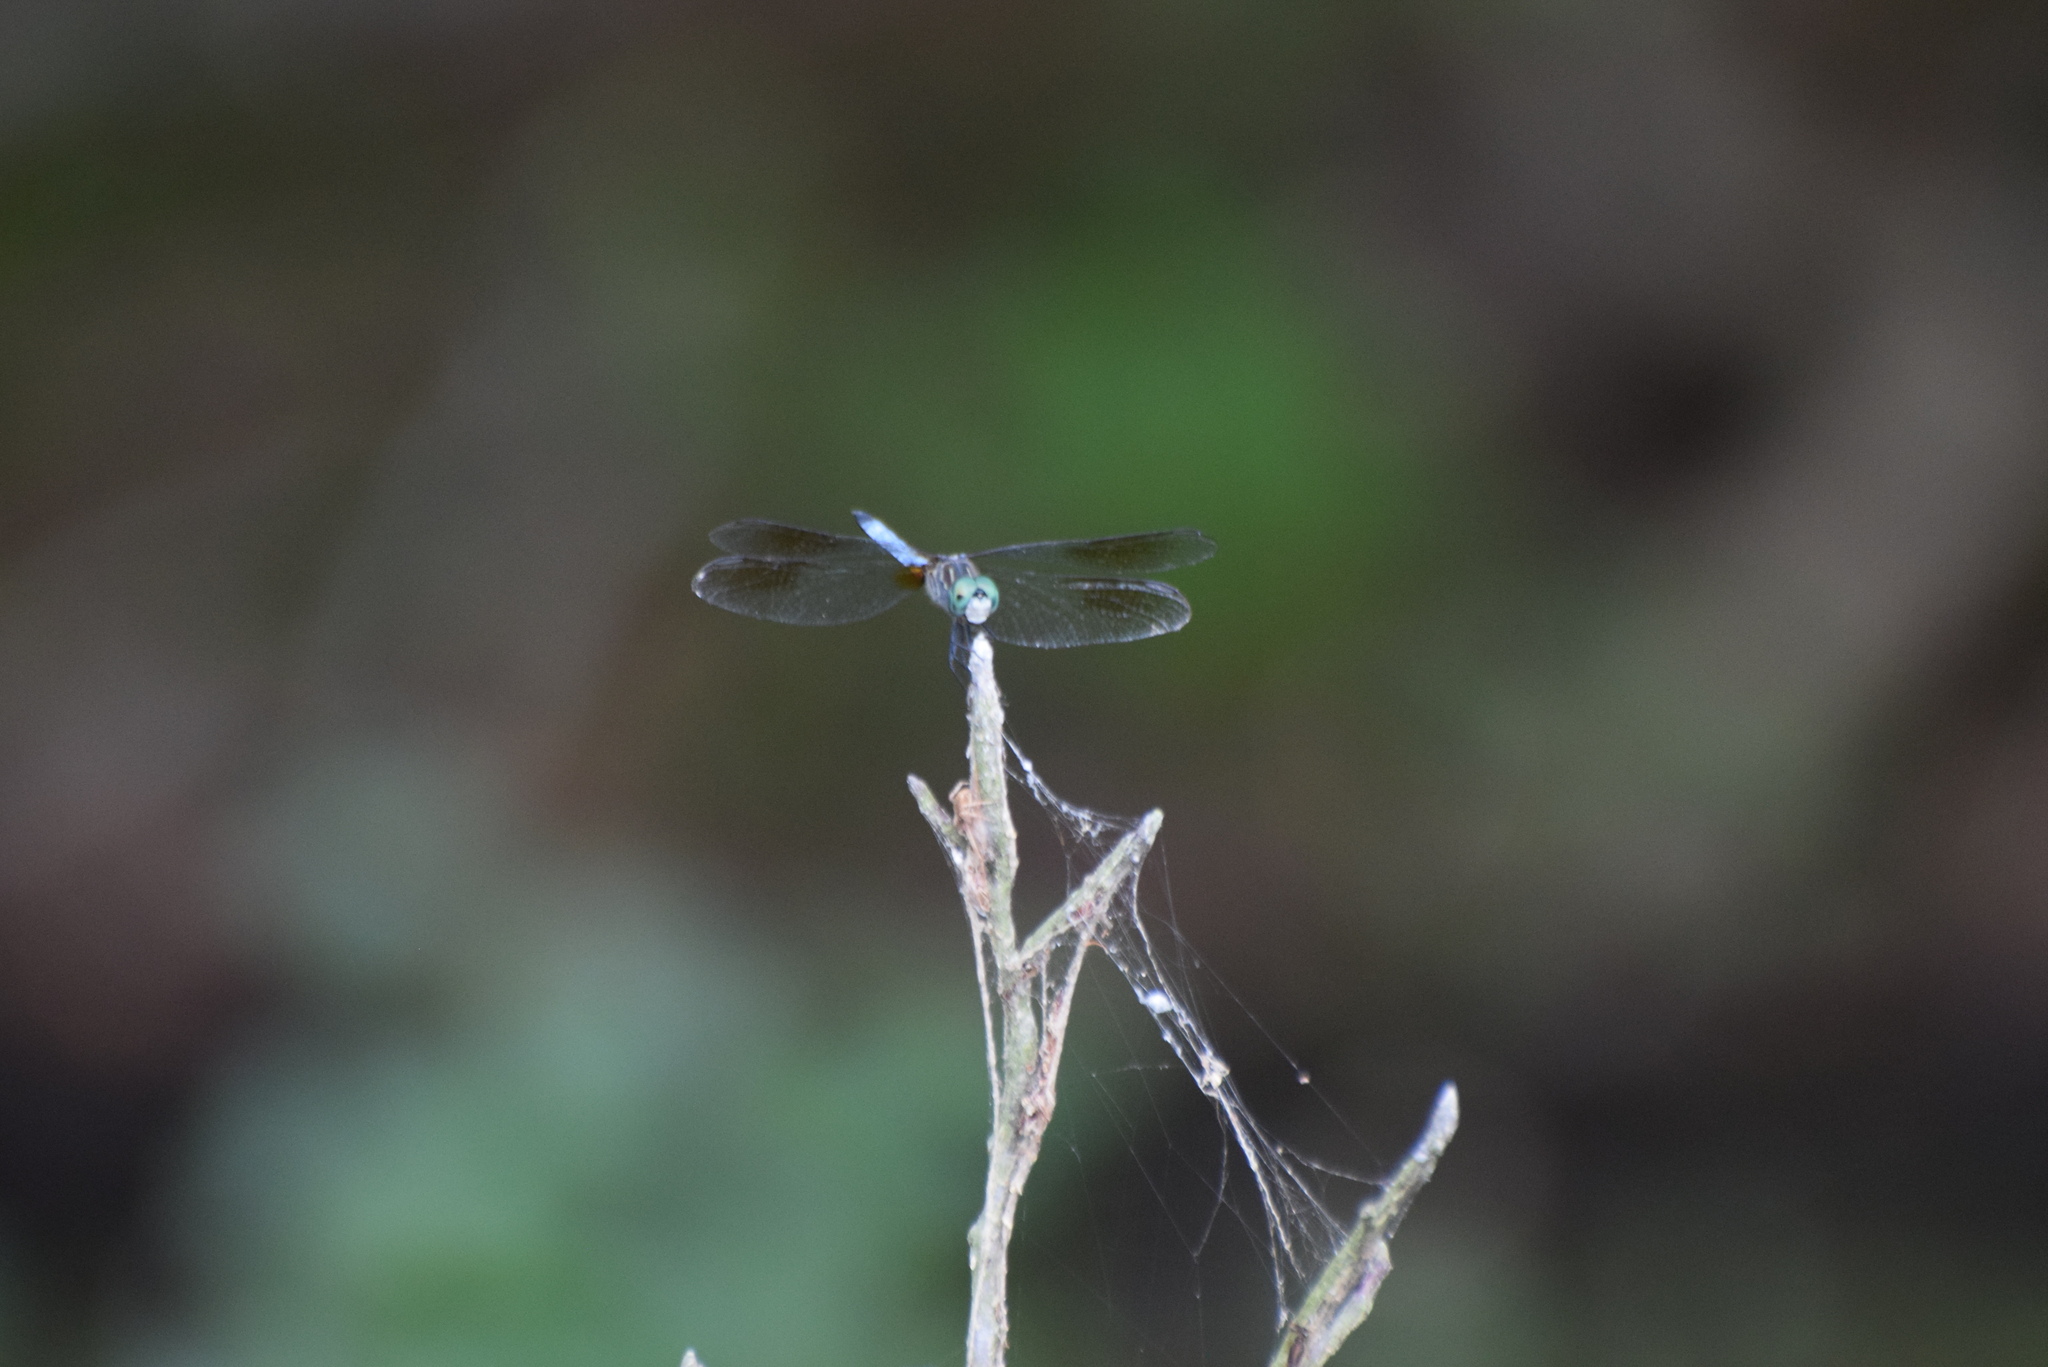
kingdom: Animalia
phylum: Arthropoda
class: Insecta
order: Odonata
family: Libellulidae
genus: Pachydiplax
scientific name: Pachydiplax longipennis
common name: Blue dasher
